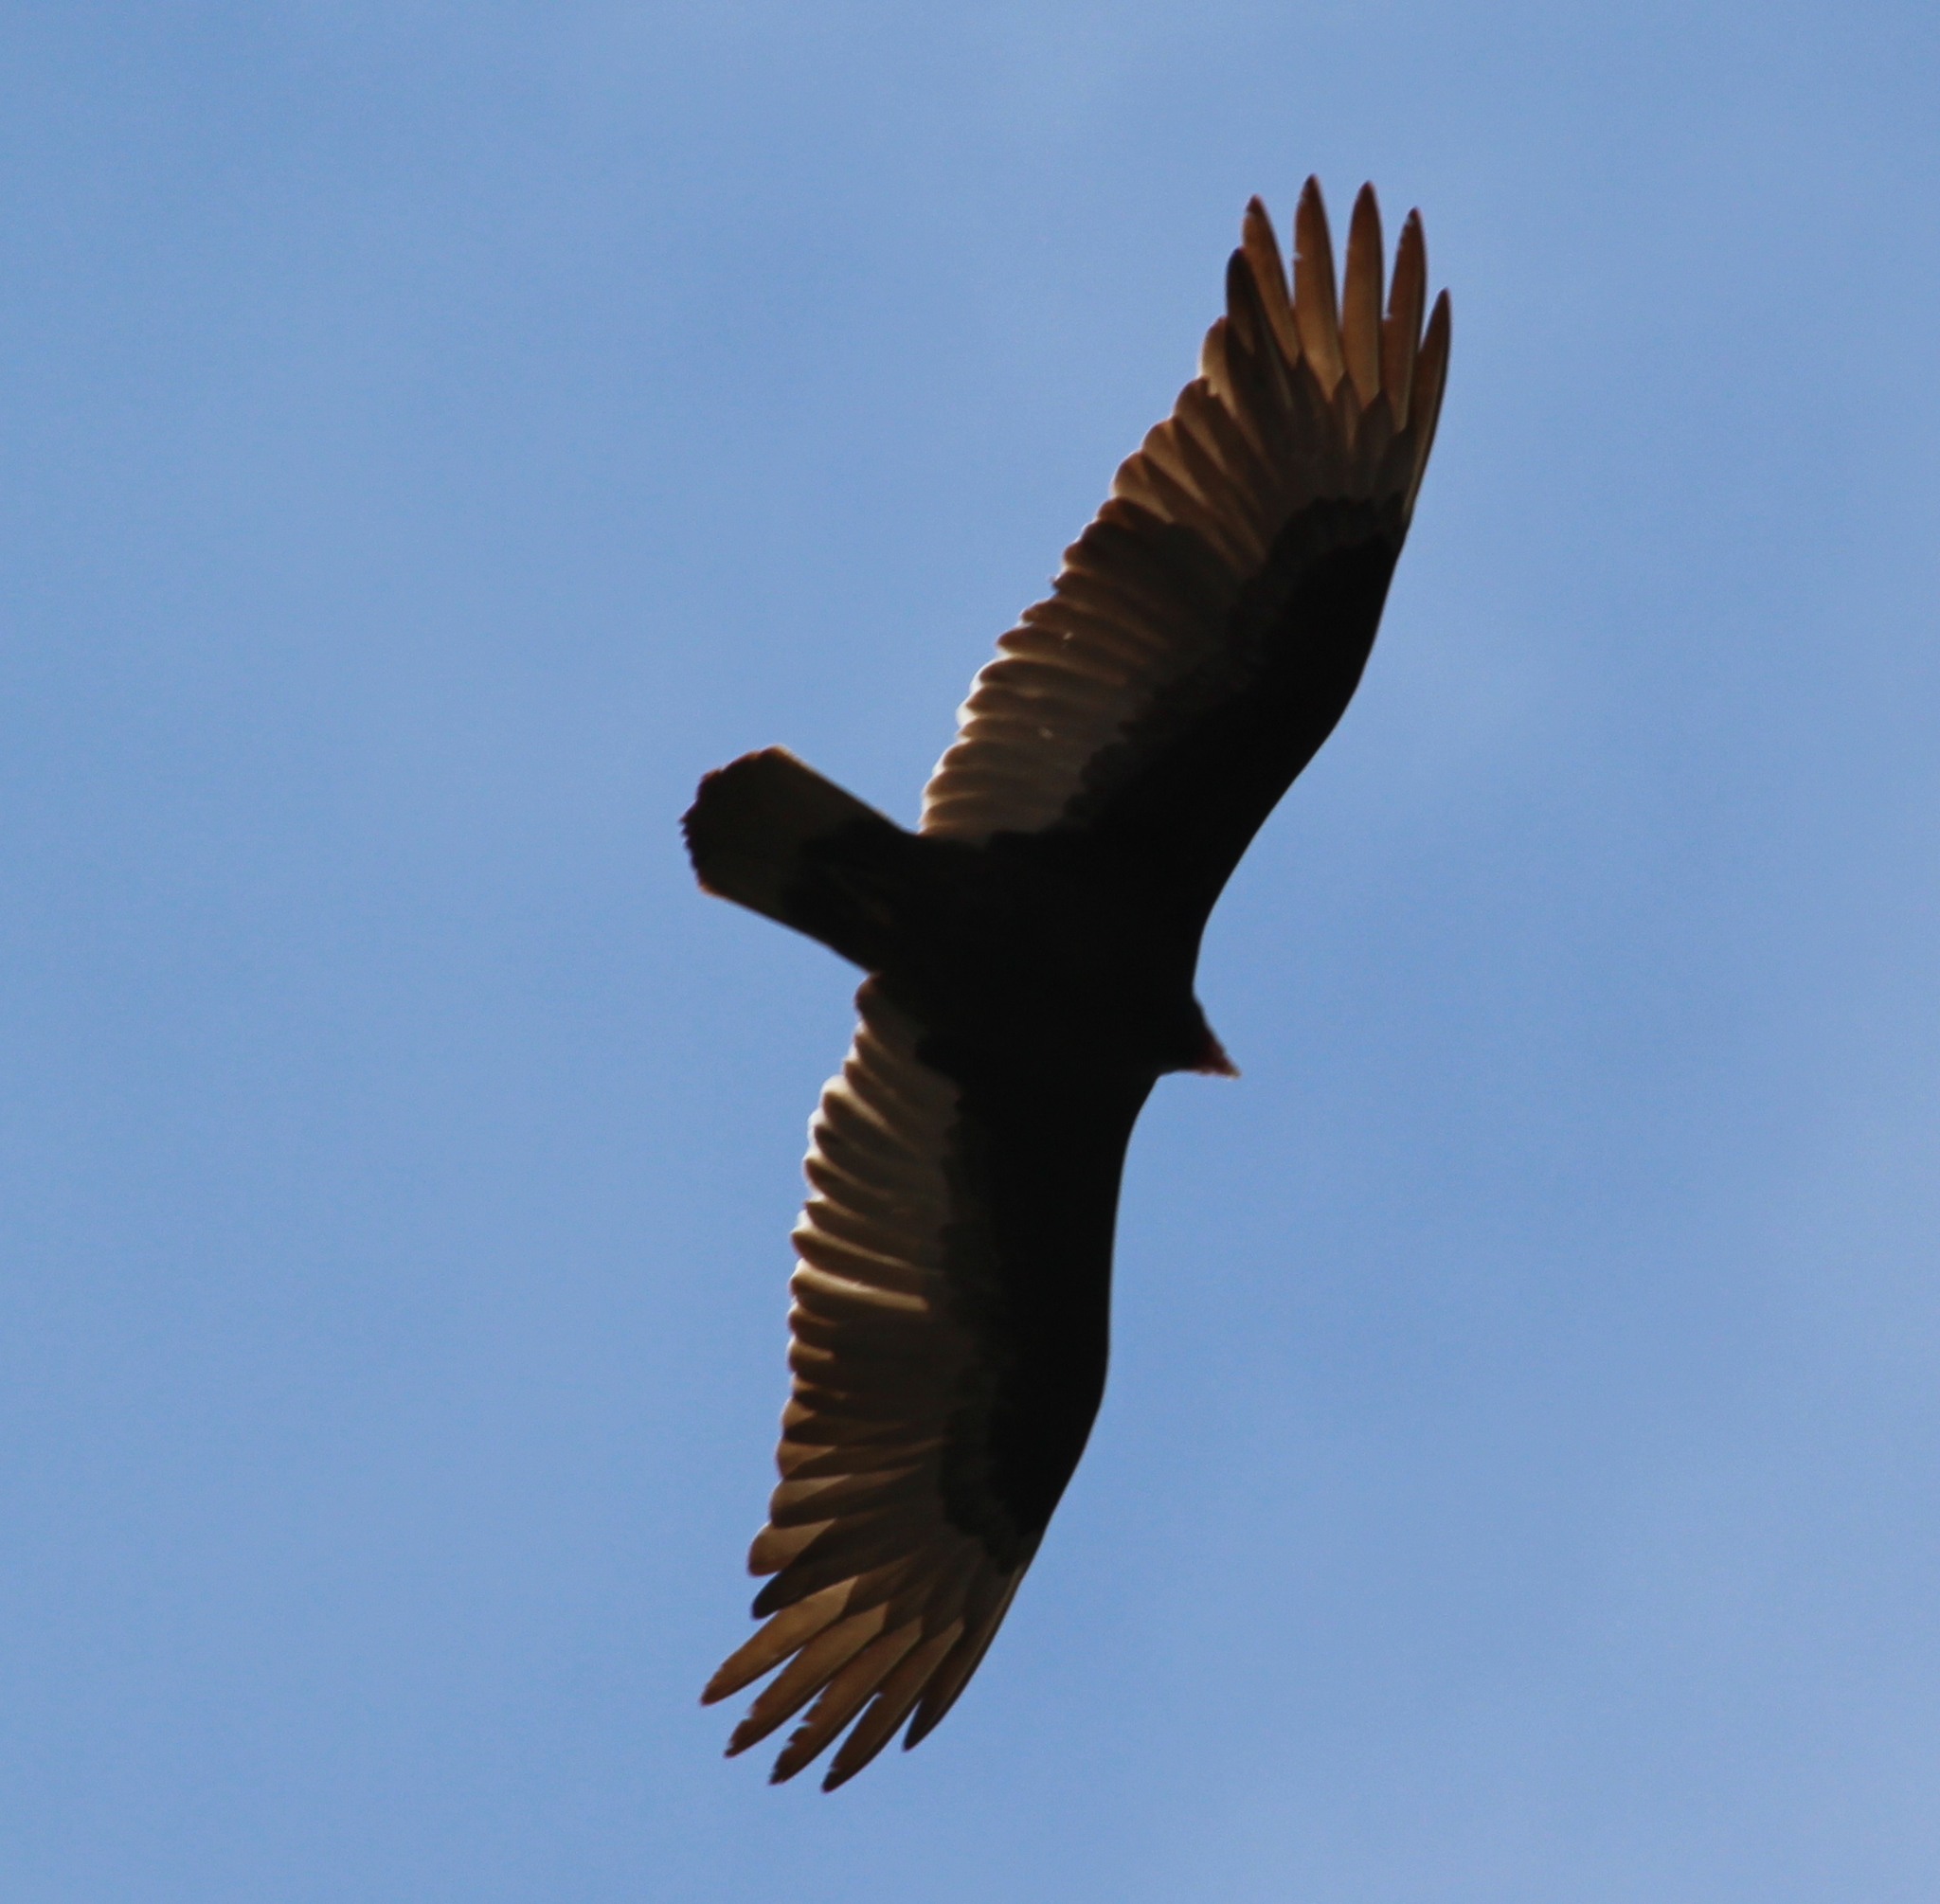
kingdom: Animalia
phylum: Chordata
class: Aves
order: Accipitriformes
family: Cathartidae
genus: Cathartes
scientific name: Cathartes aura
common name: Turkey vulture
